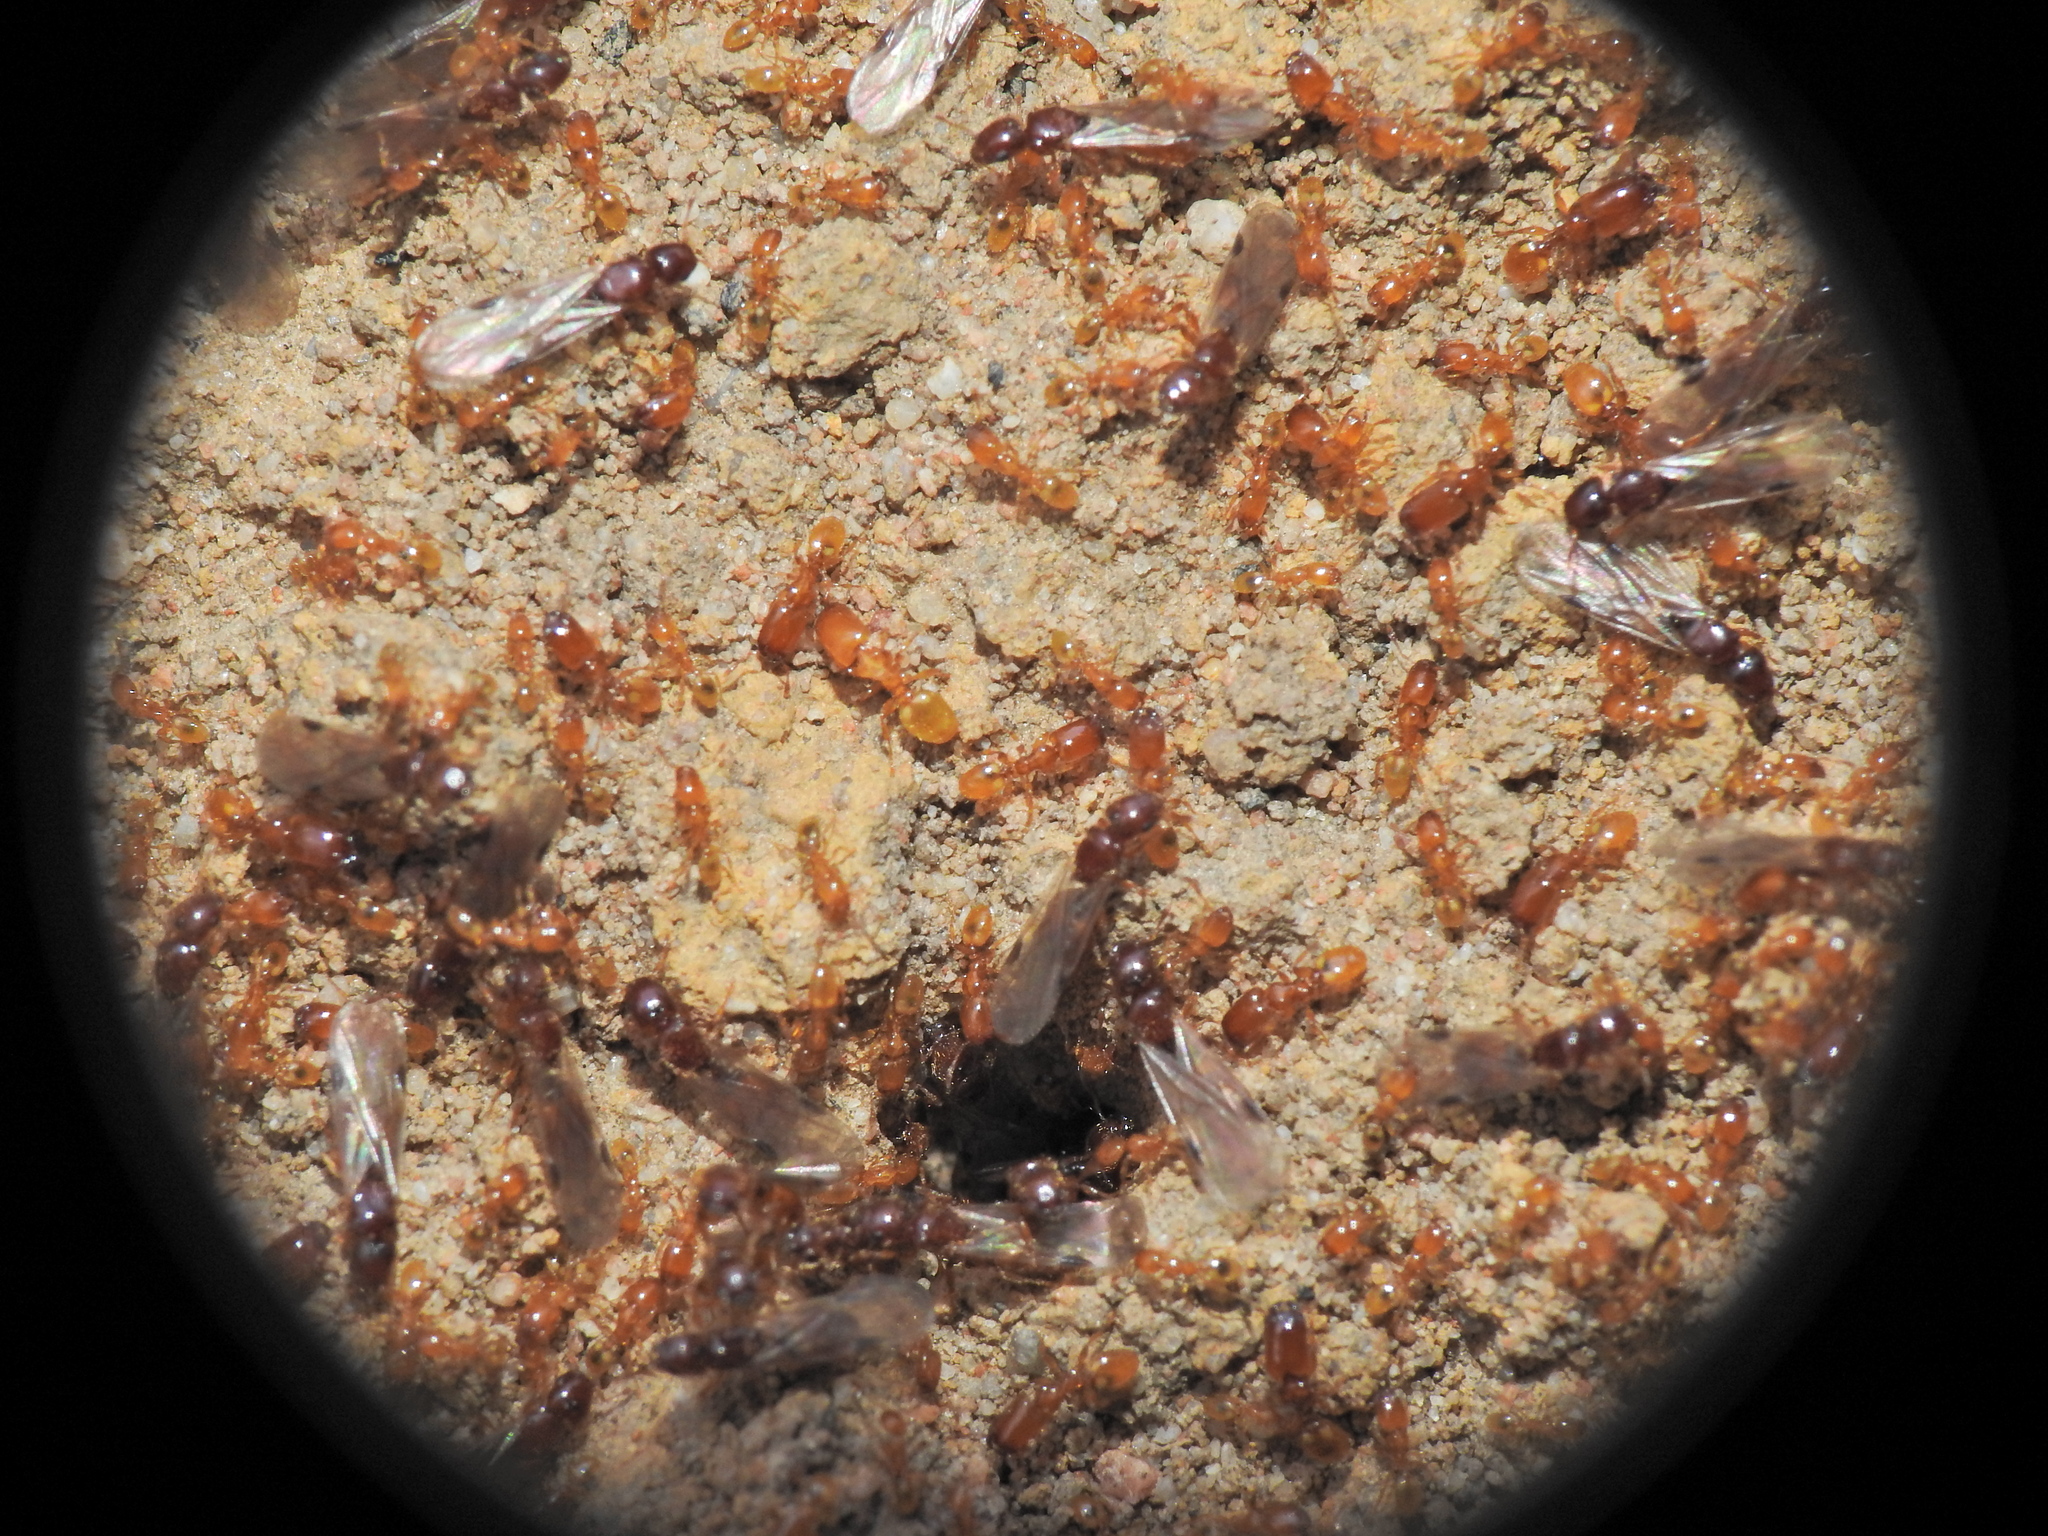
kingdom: Animalia
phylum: Arthropoda
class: Insecta
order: Hymenoptera
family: Formicidae
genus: Pheidole
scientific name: Pheidole
